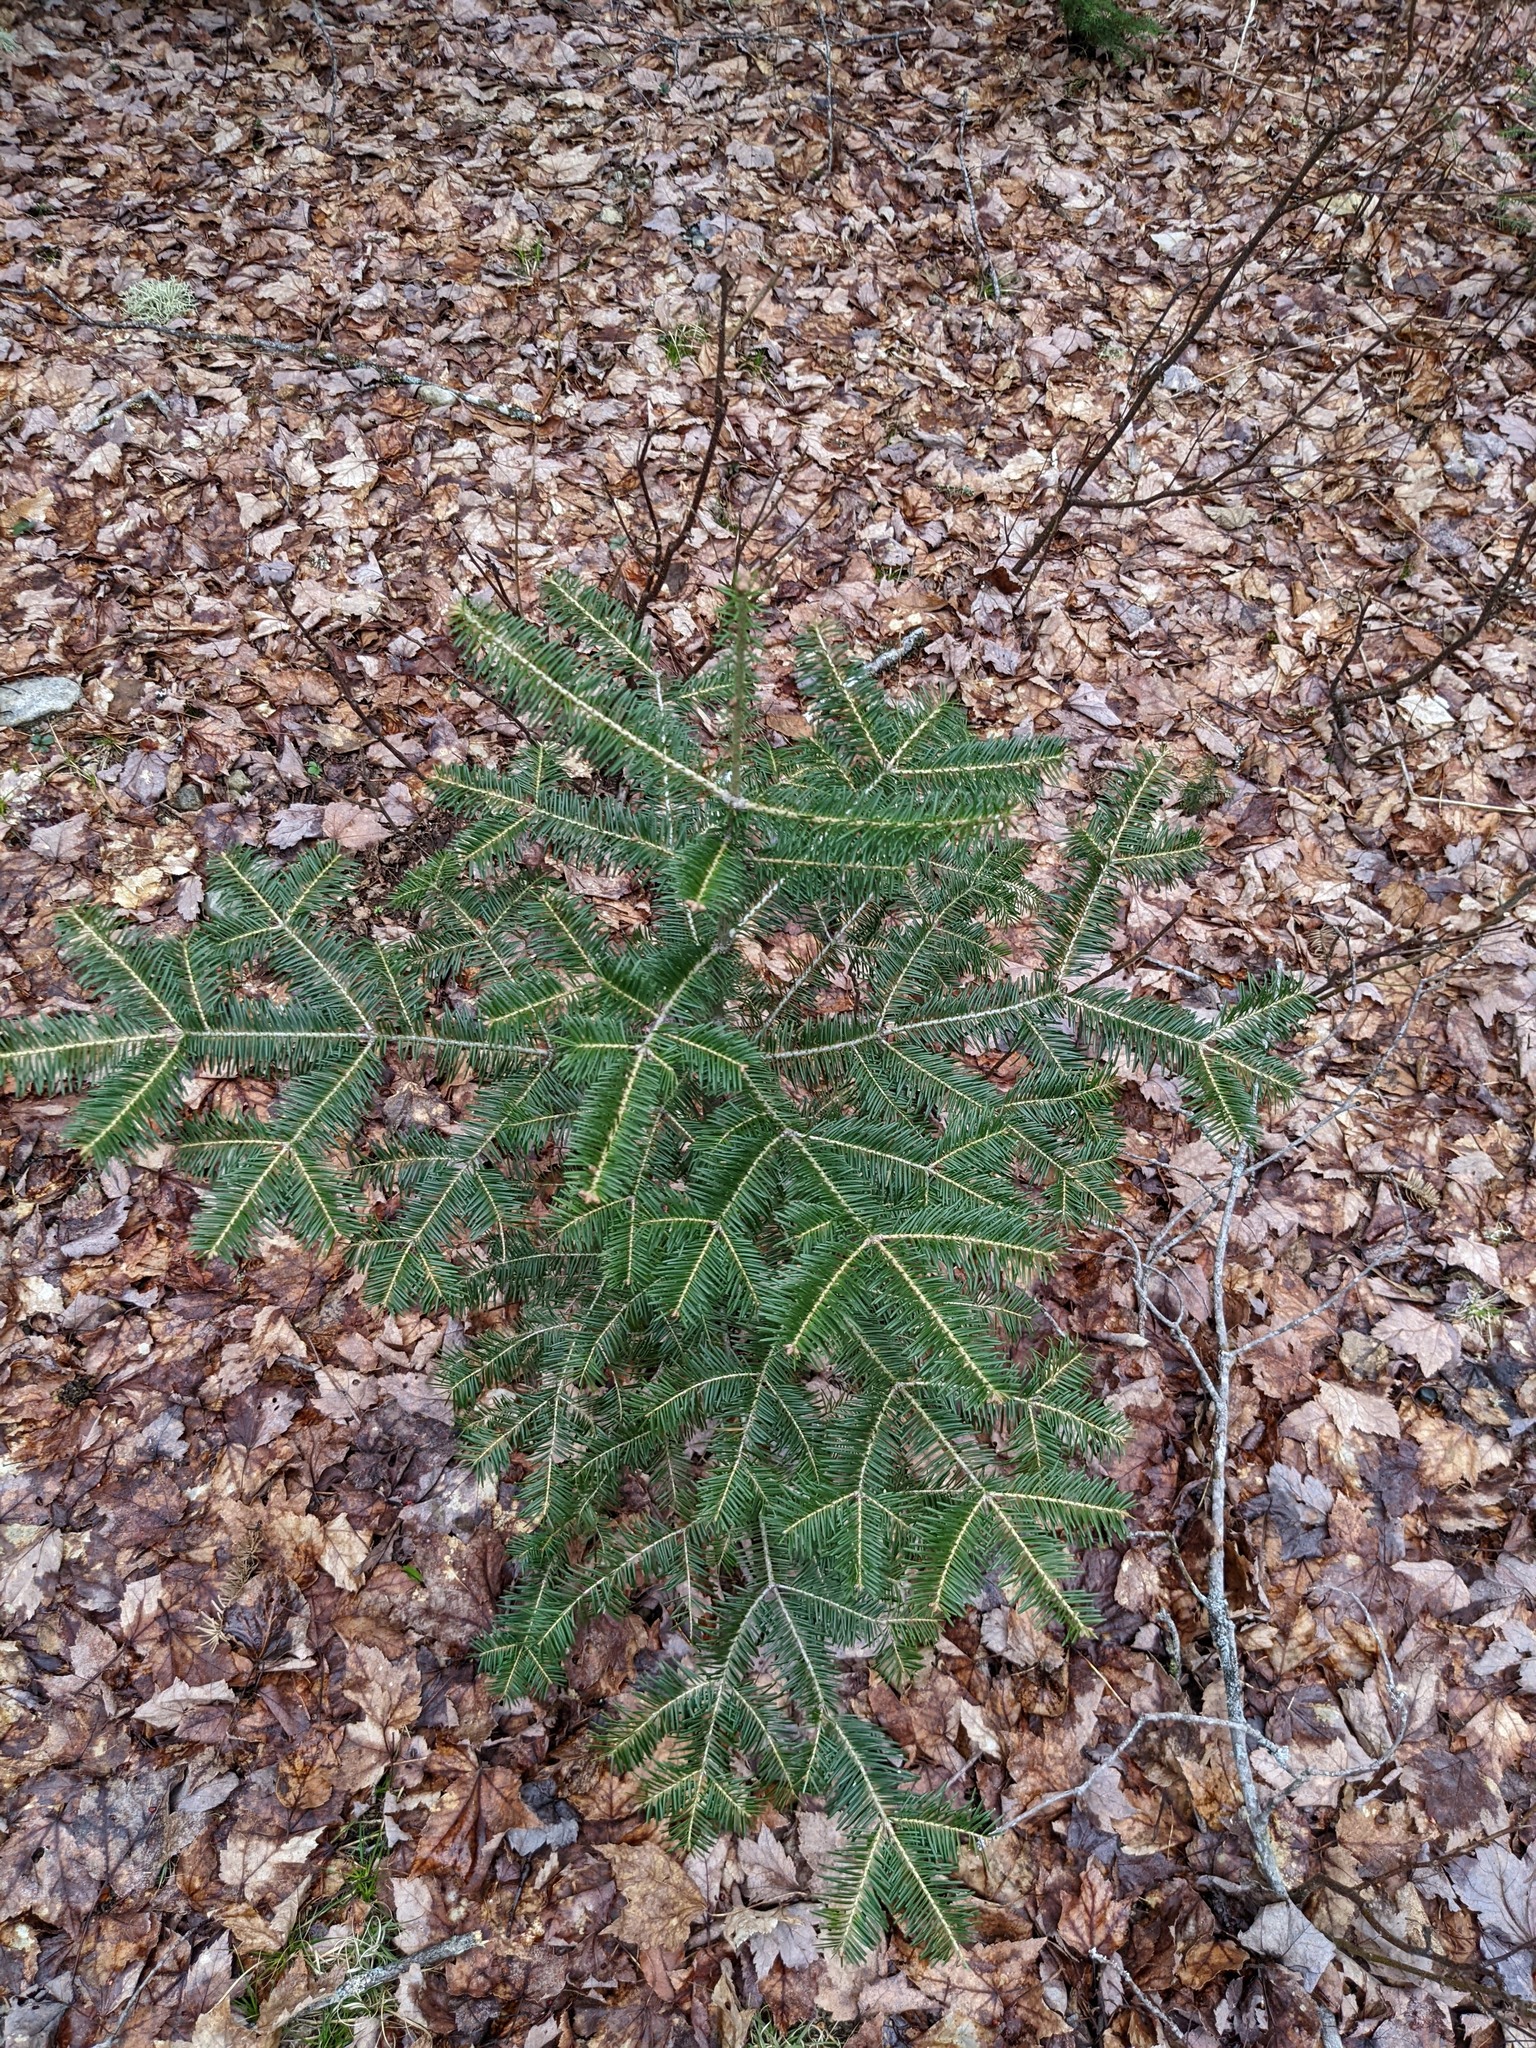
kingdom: Plantae
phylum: Tracheophyta
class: Pinopsida
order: Pinales
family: Pinaceae
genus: Abies
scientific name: Abies balsamea
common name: Balsam fir
